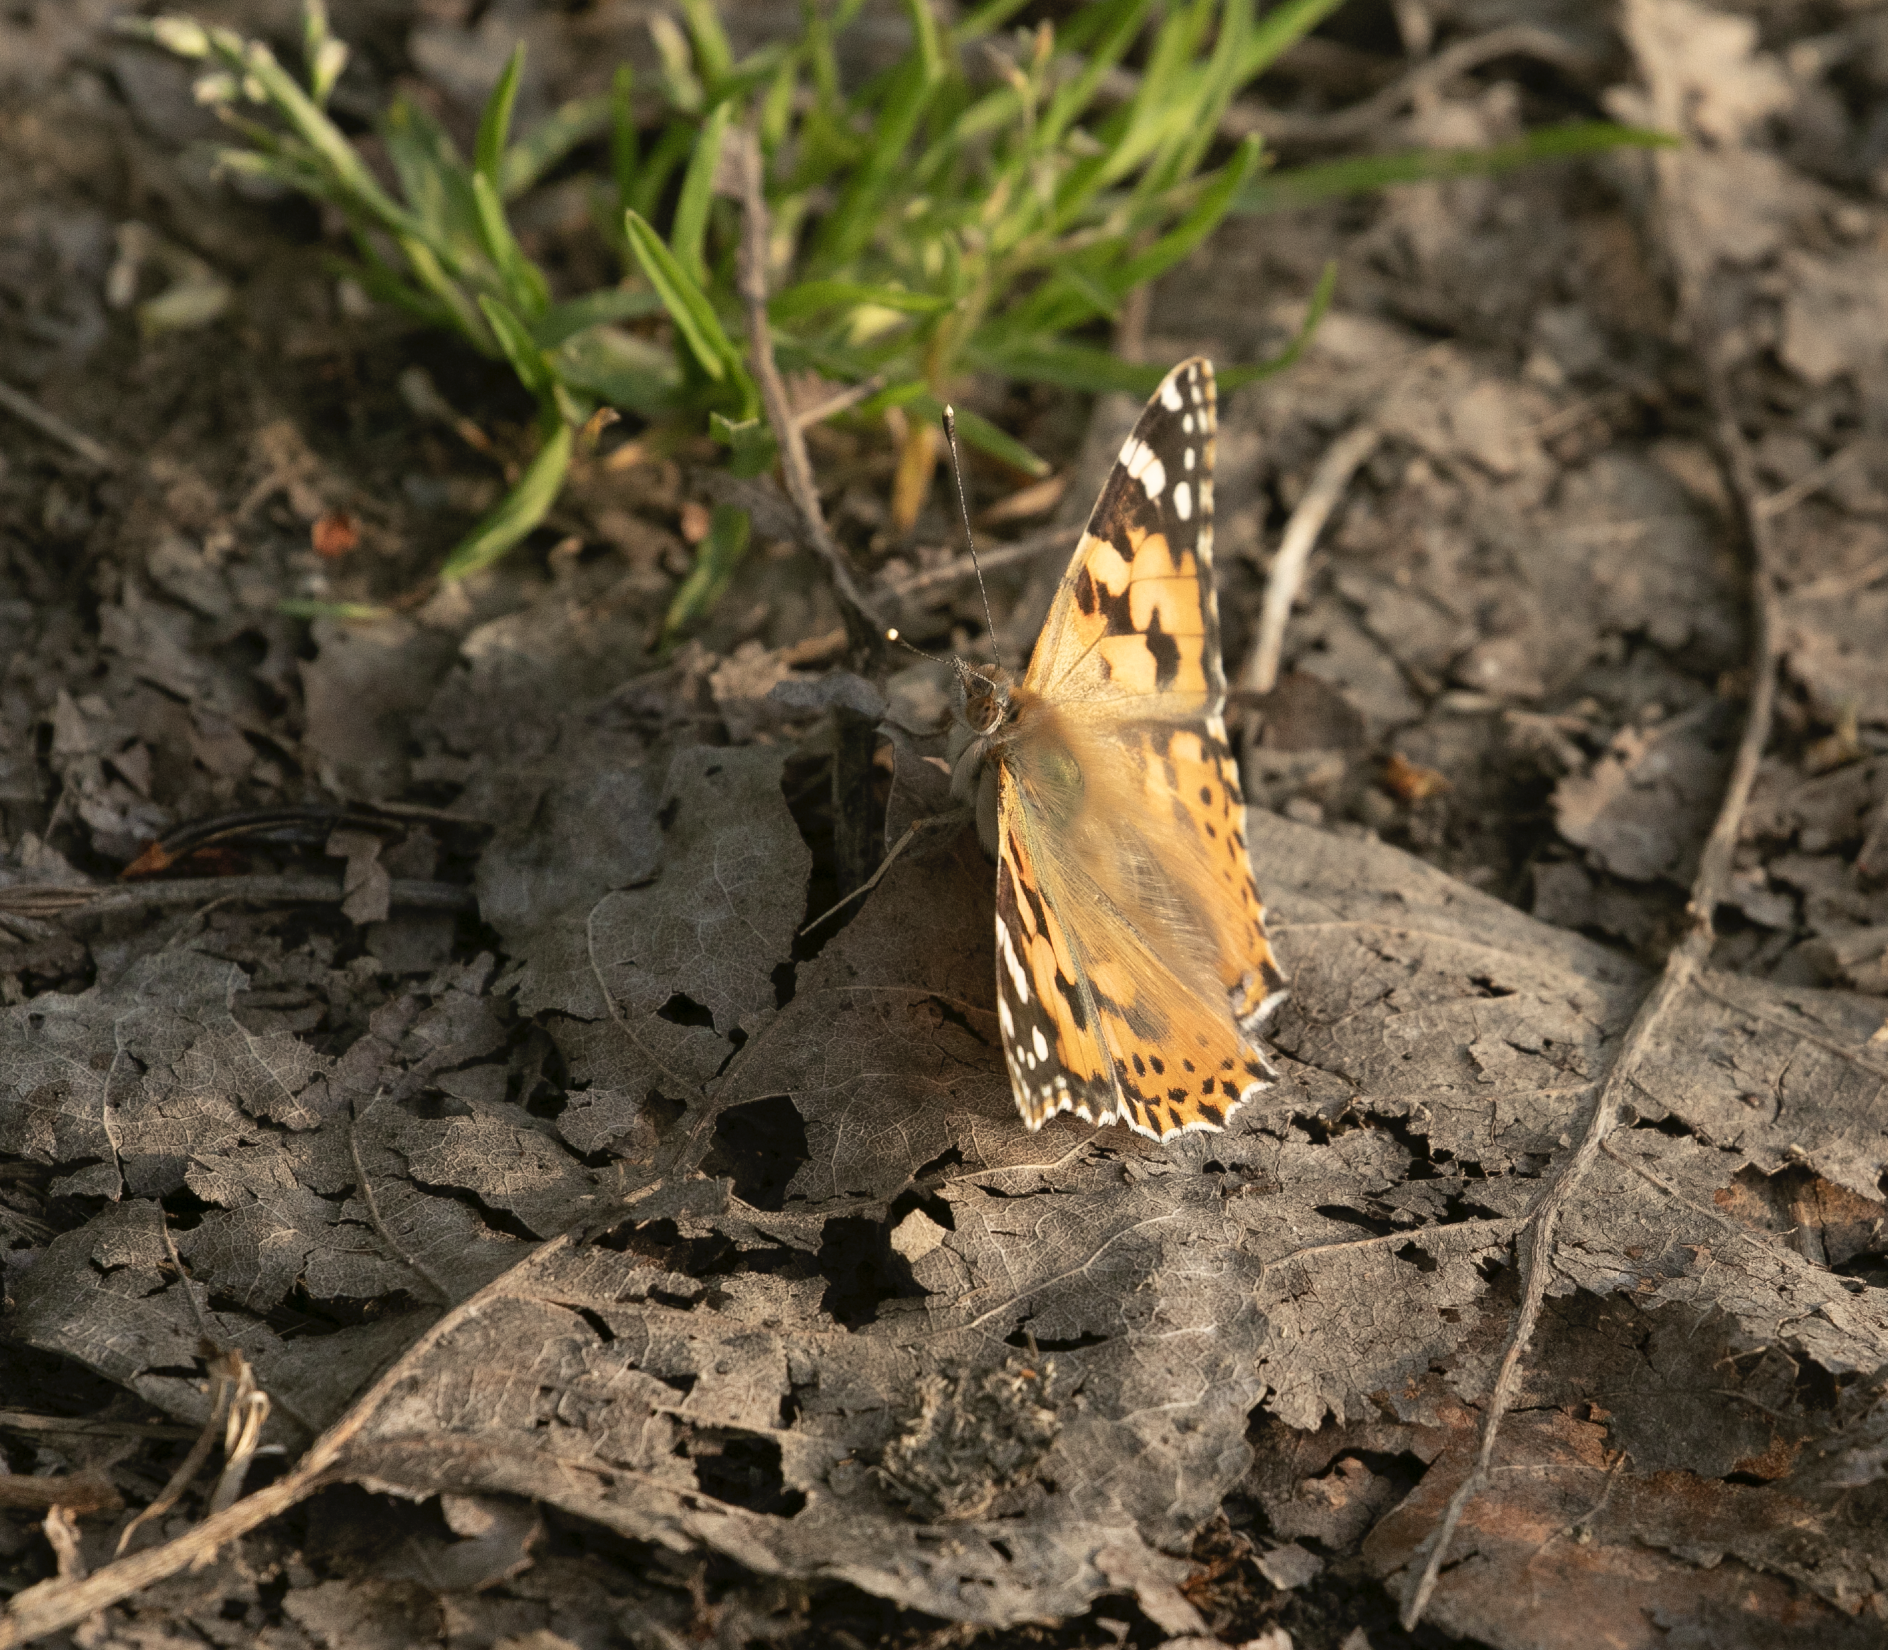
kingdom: Animalia
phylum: Arthropoda
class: Insecta
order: Lepidoptera
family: Nymphalidae
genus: Vanessa
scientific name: Vanessa cardui
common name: Painted lady
